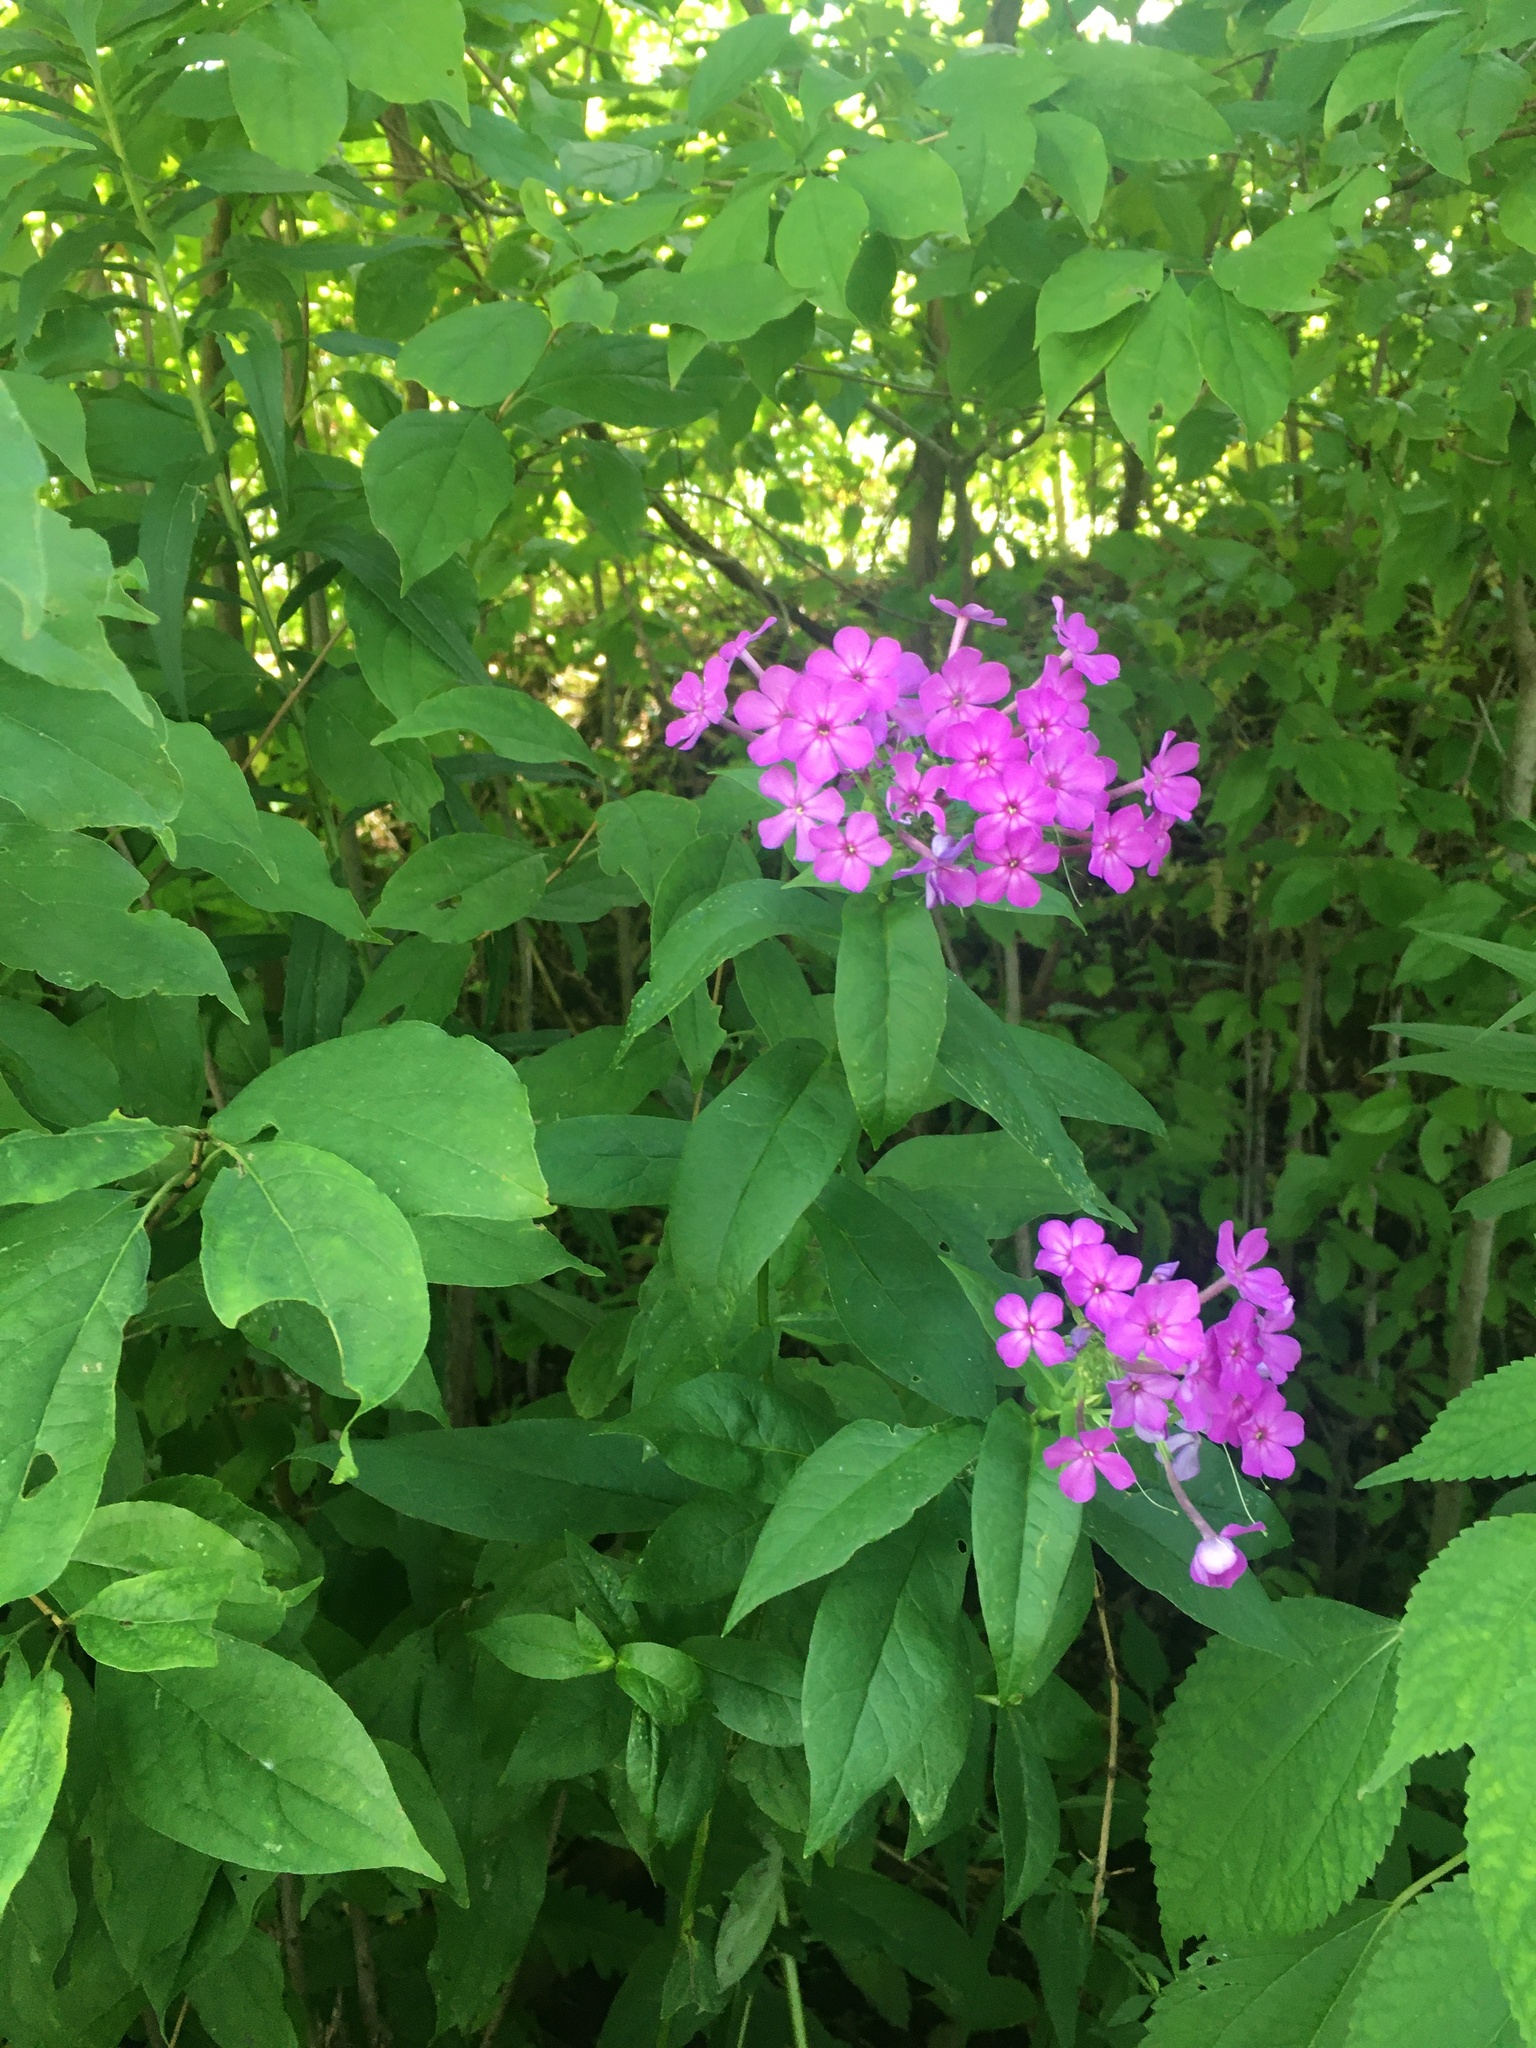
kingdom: Plantae
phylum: Tracheophyta
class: Magnoliopsida
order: Ericales
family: Polemoniaceae
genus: Phlox
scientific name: Phlox paniculata
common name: Fall phlox
